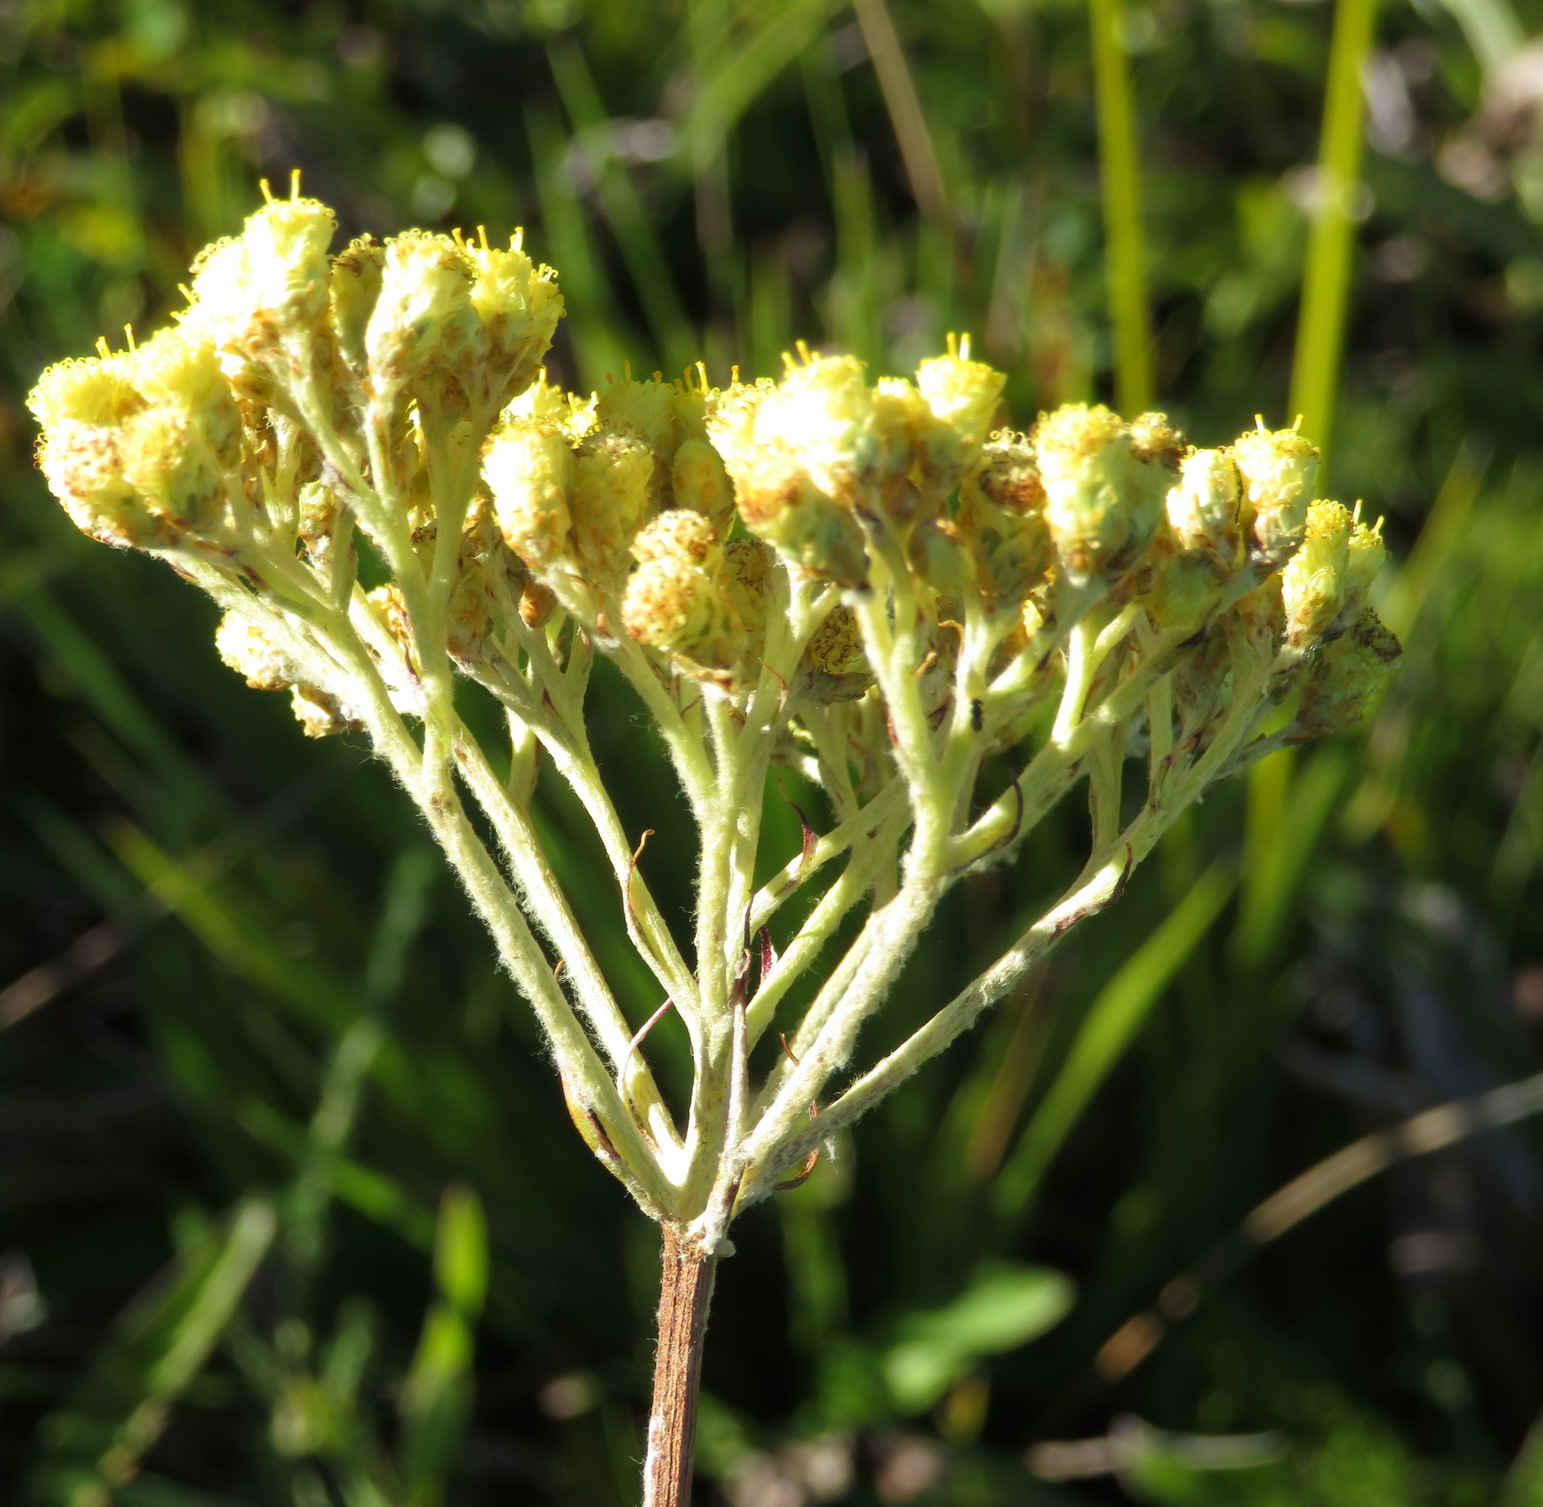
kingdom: Plantae
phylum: Tracheophyta
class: Magnoliopsida
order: Asterales
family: Asteraceae
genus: Helichrysum
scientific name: Helichrysum nudifolium
